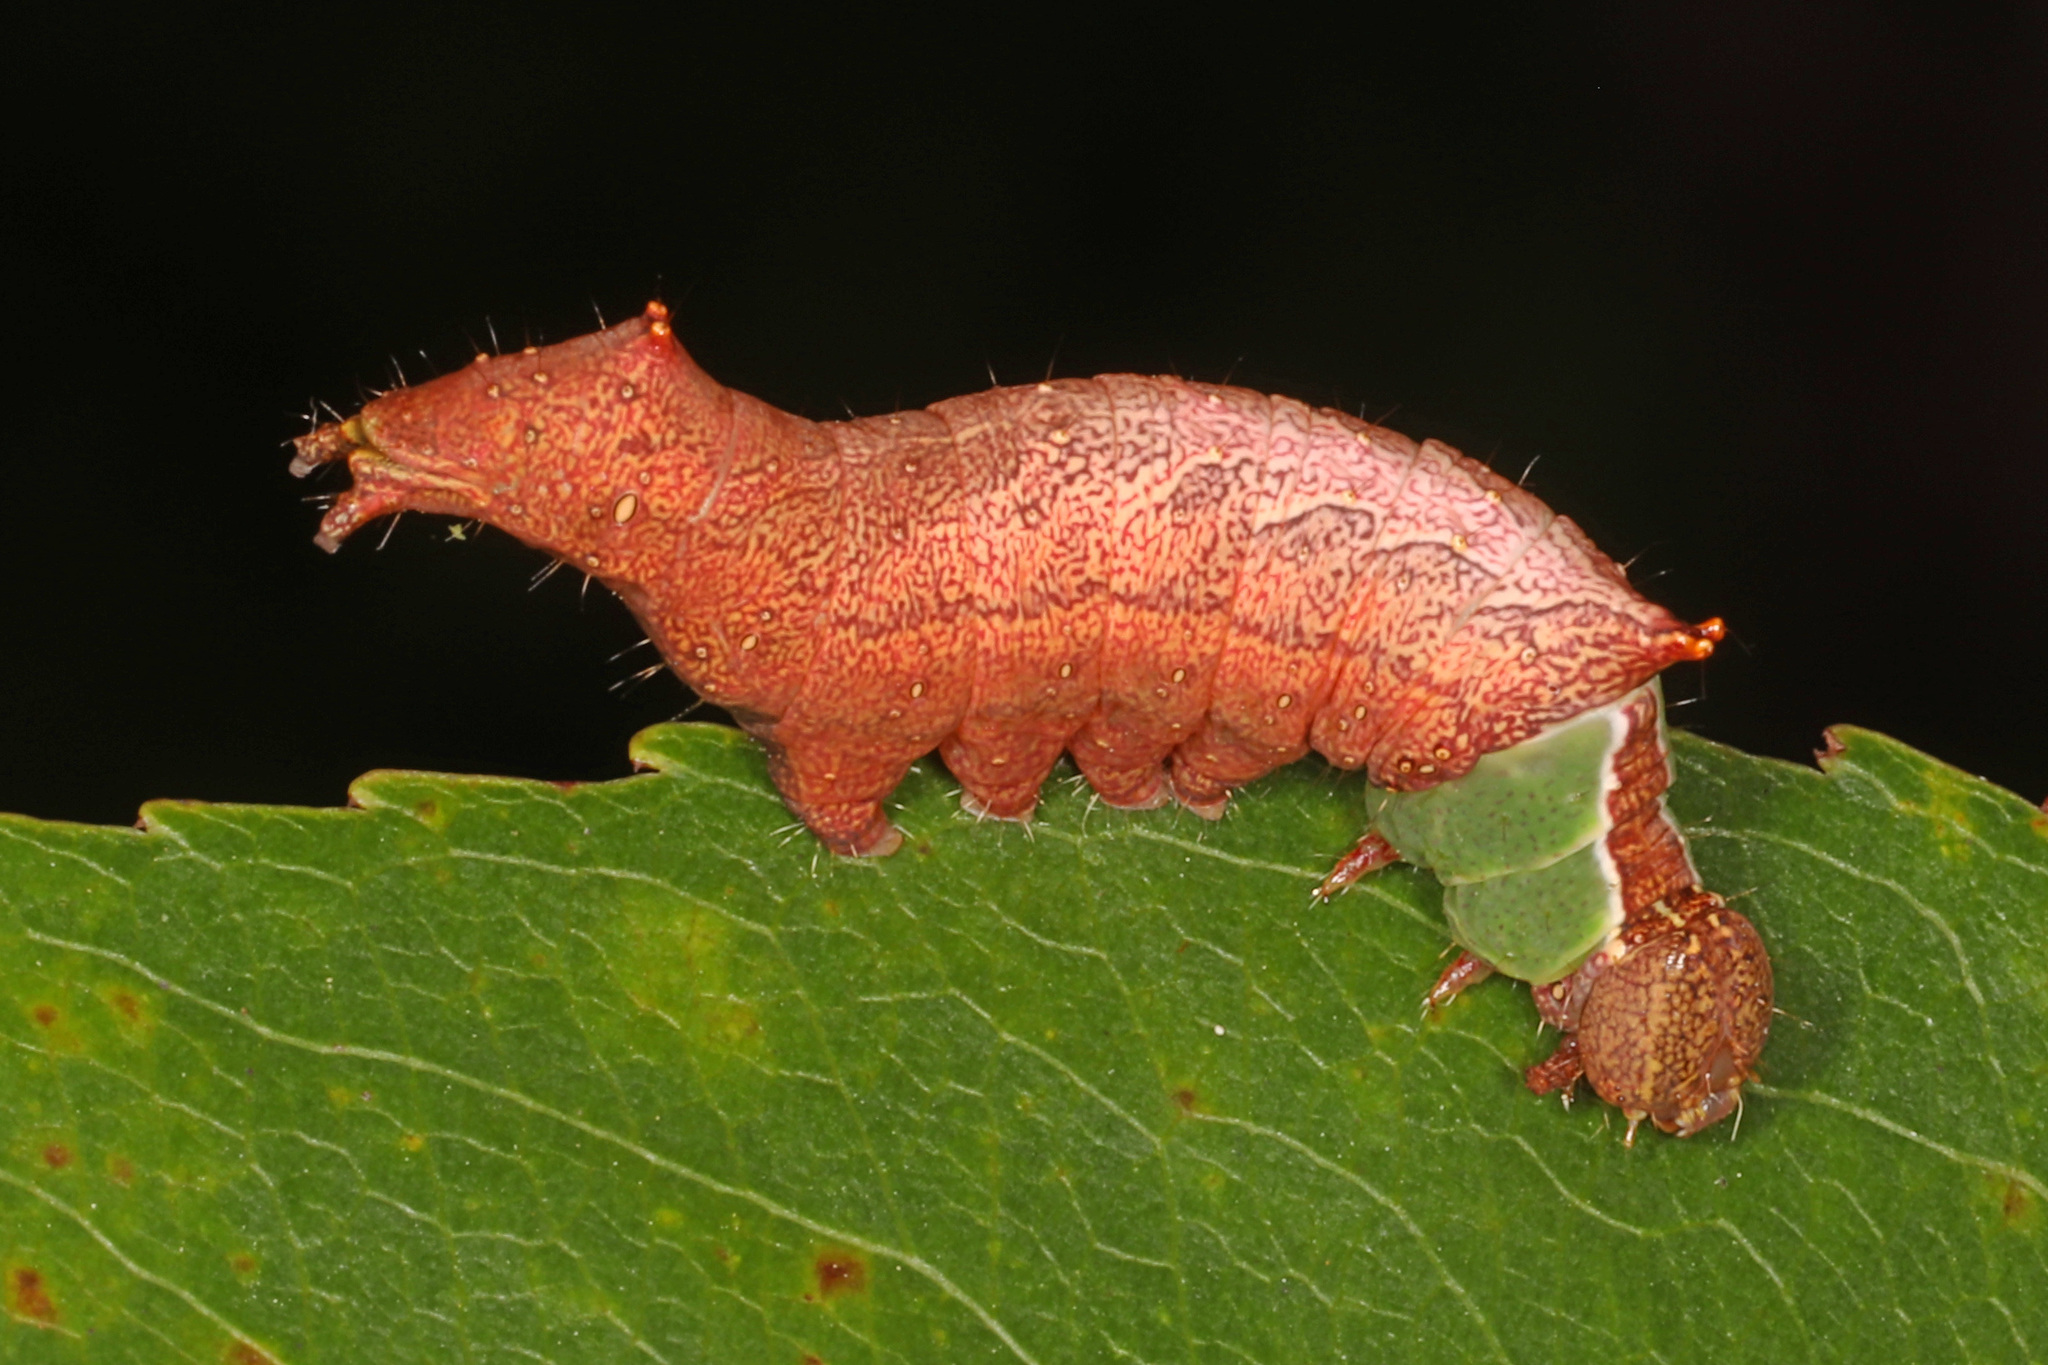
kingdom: Animalia
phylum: Arthropoda
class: Insecta
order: Lepidoptera
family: Notodontidae
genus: Schizura
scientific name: Schizura
